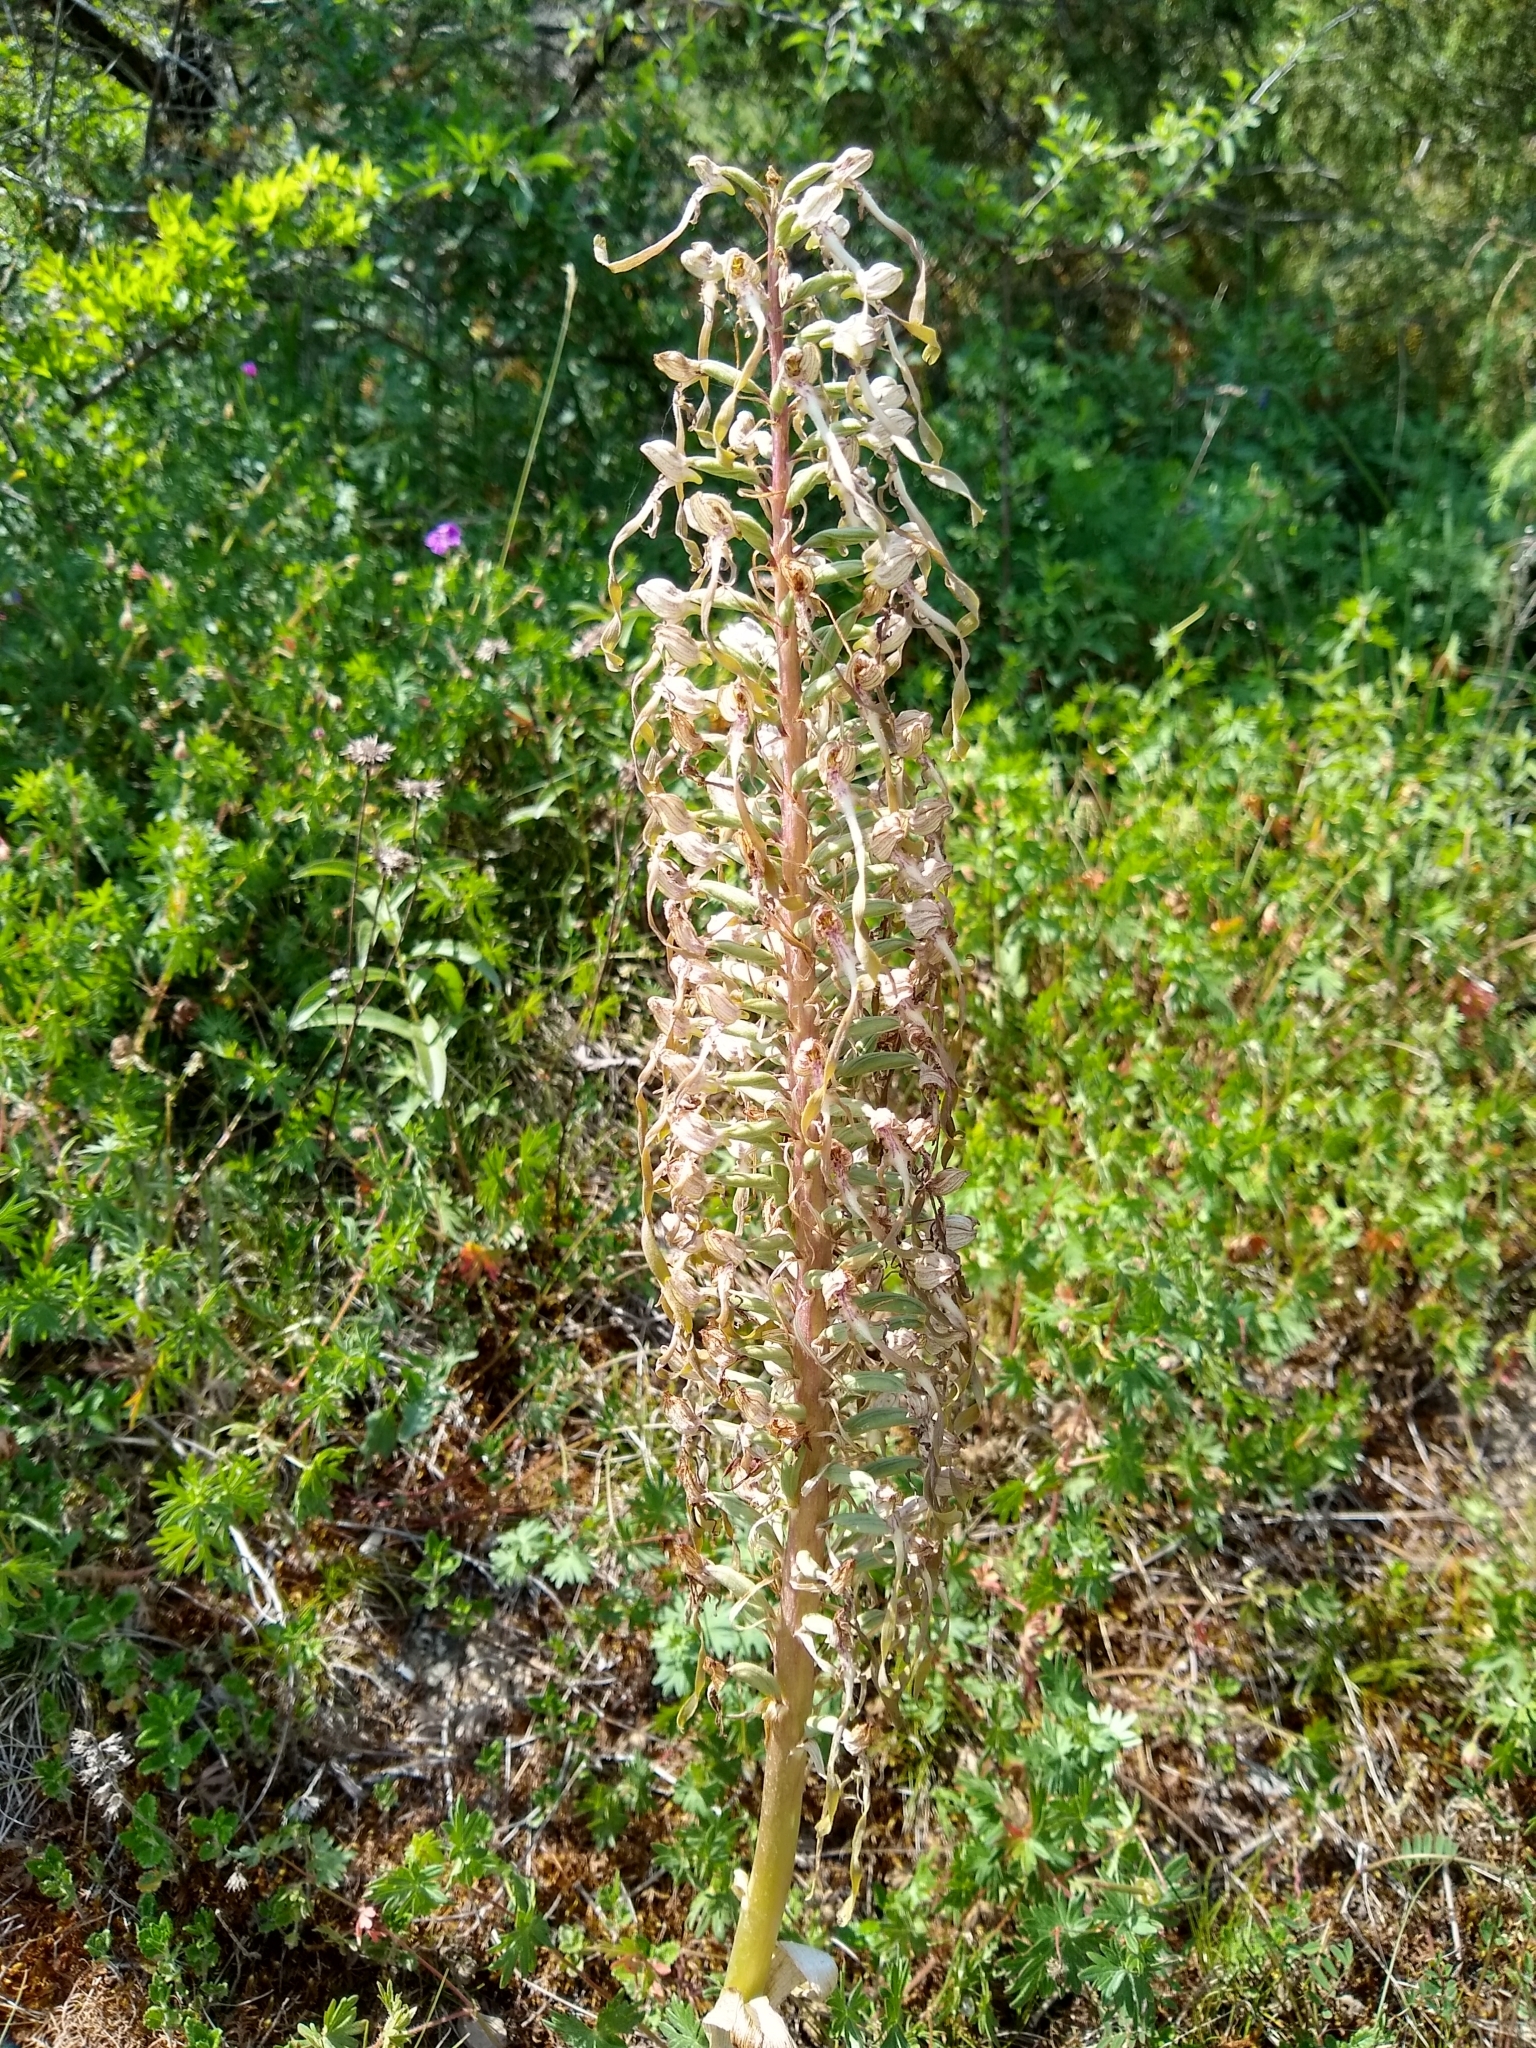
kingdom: Plantae
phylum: Tracheophyta
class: Liliopsida
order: Asparagales
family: Orchidaceae
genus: Himantoglossum
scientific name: Himantoglossum hircinum
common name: Lizard orchid
